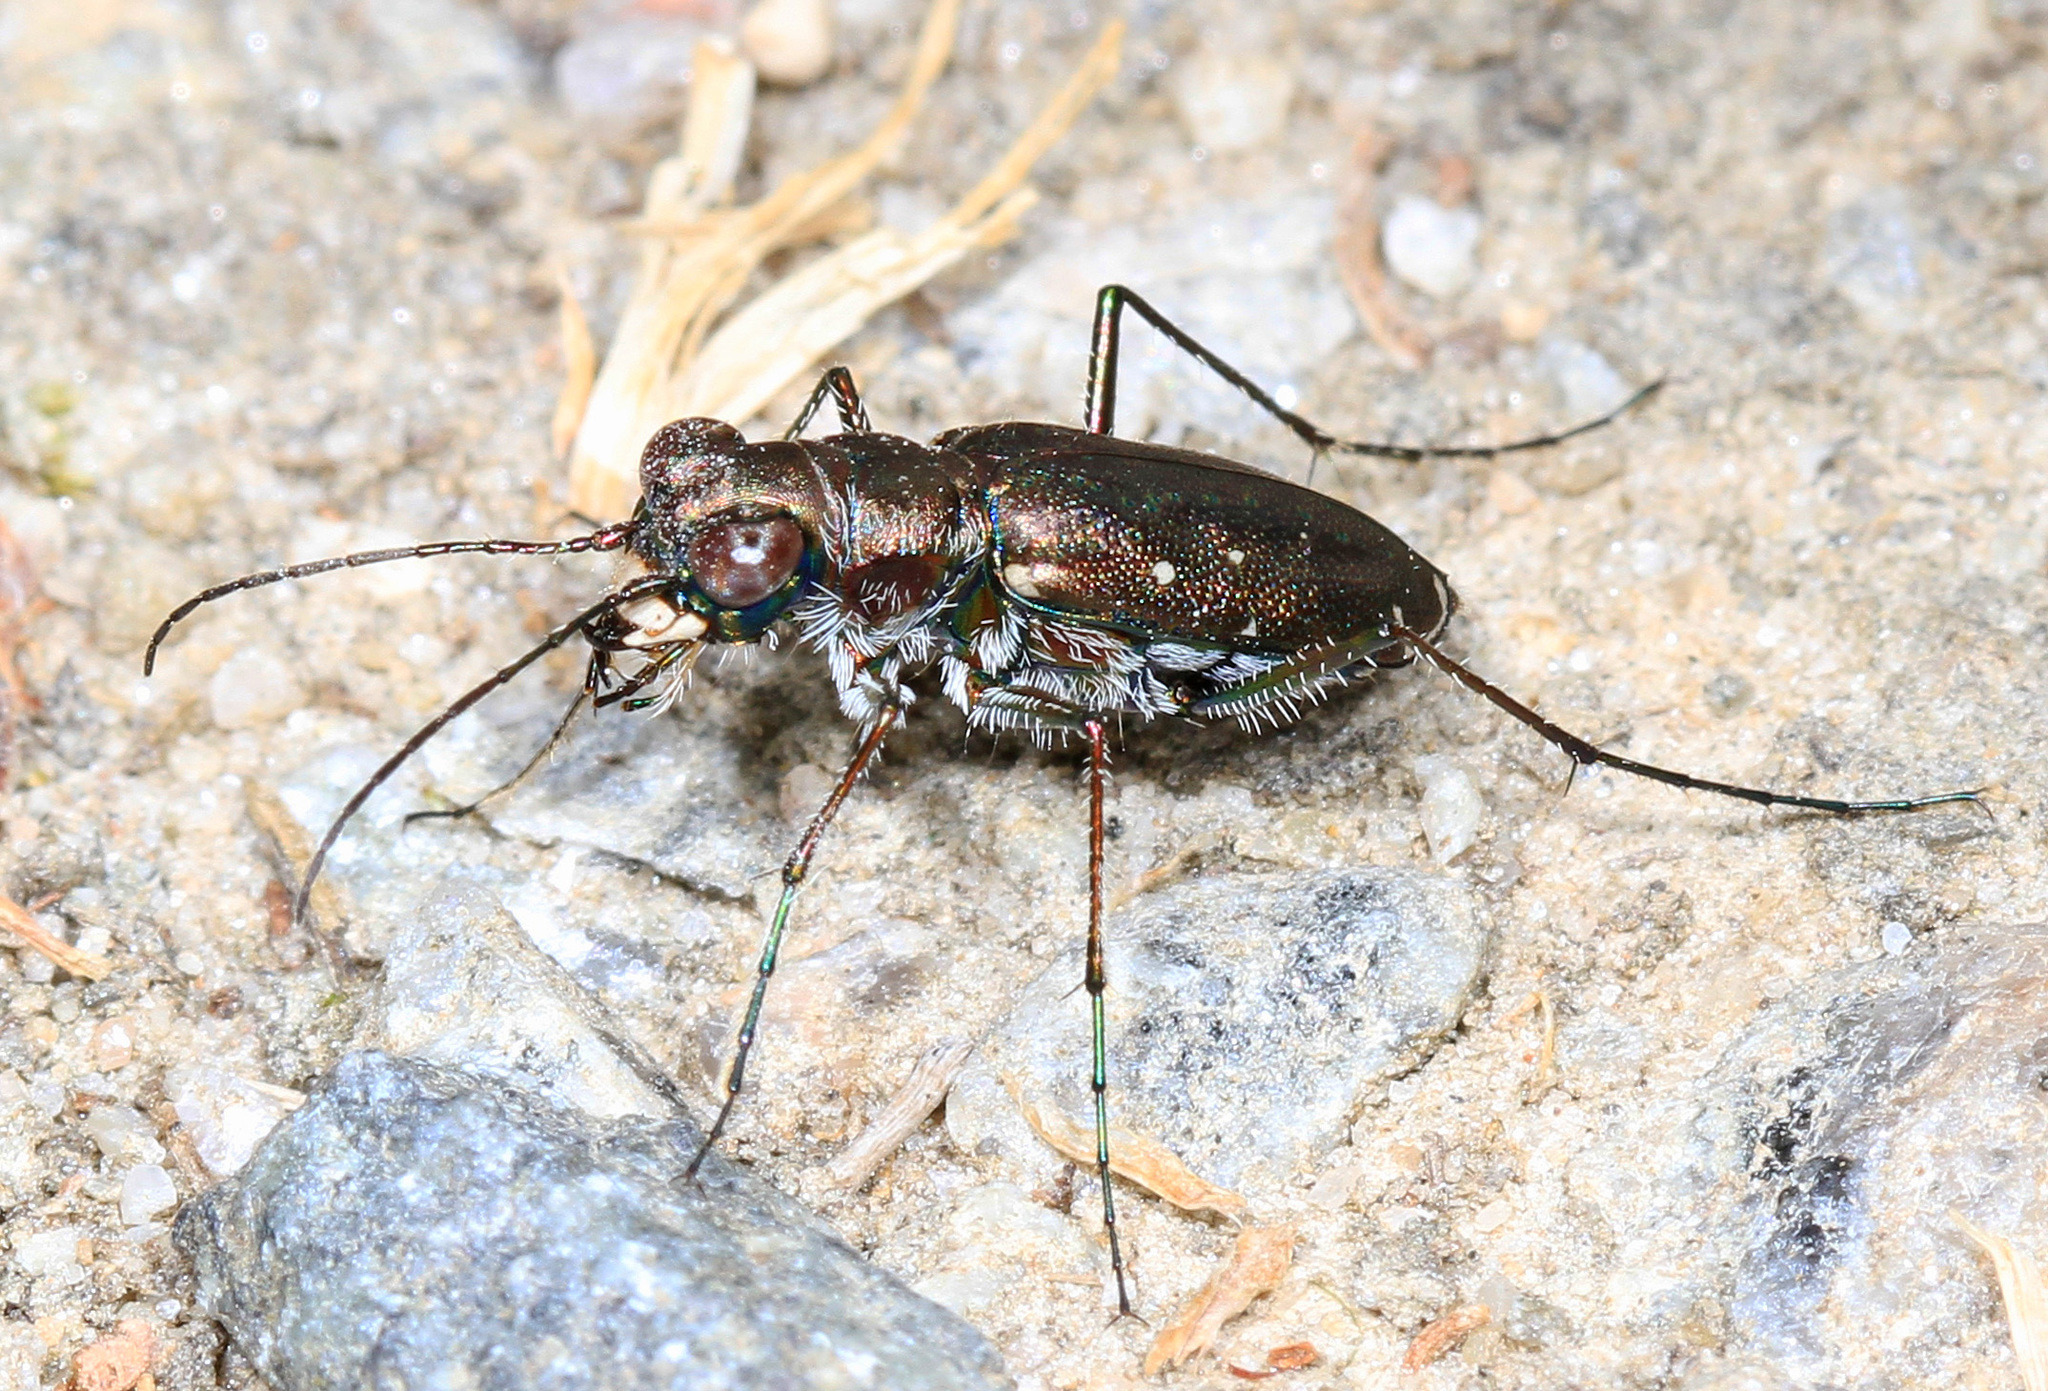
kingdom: Animalia
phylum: Arthropoda
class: Insecta
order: Coleoptera
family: Carabidae
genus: Cicindela
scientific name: Cicindela punctulata
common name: Punctured tiger beetle
